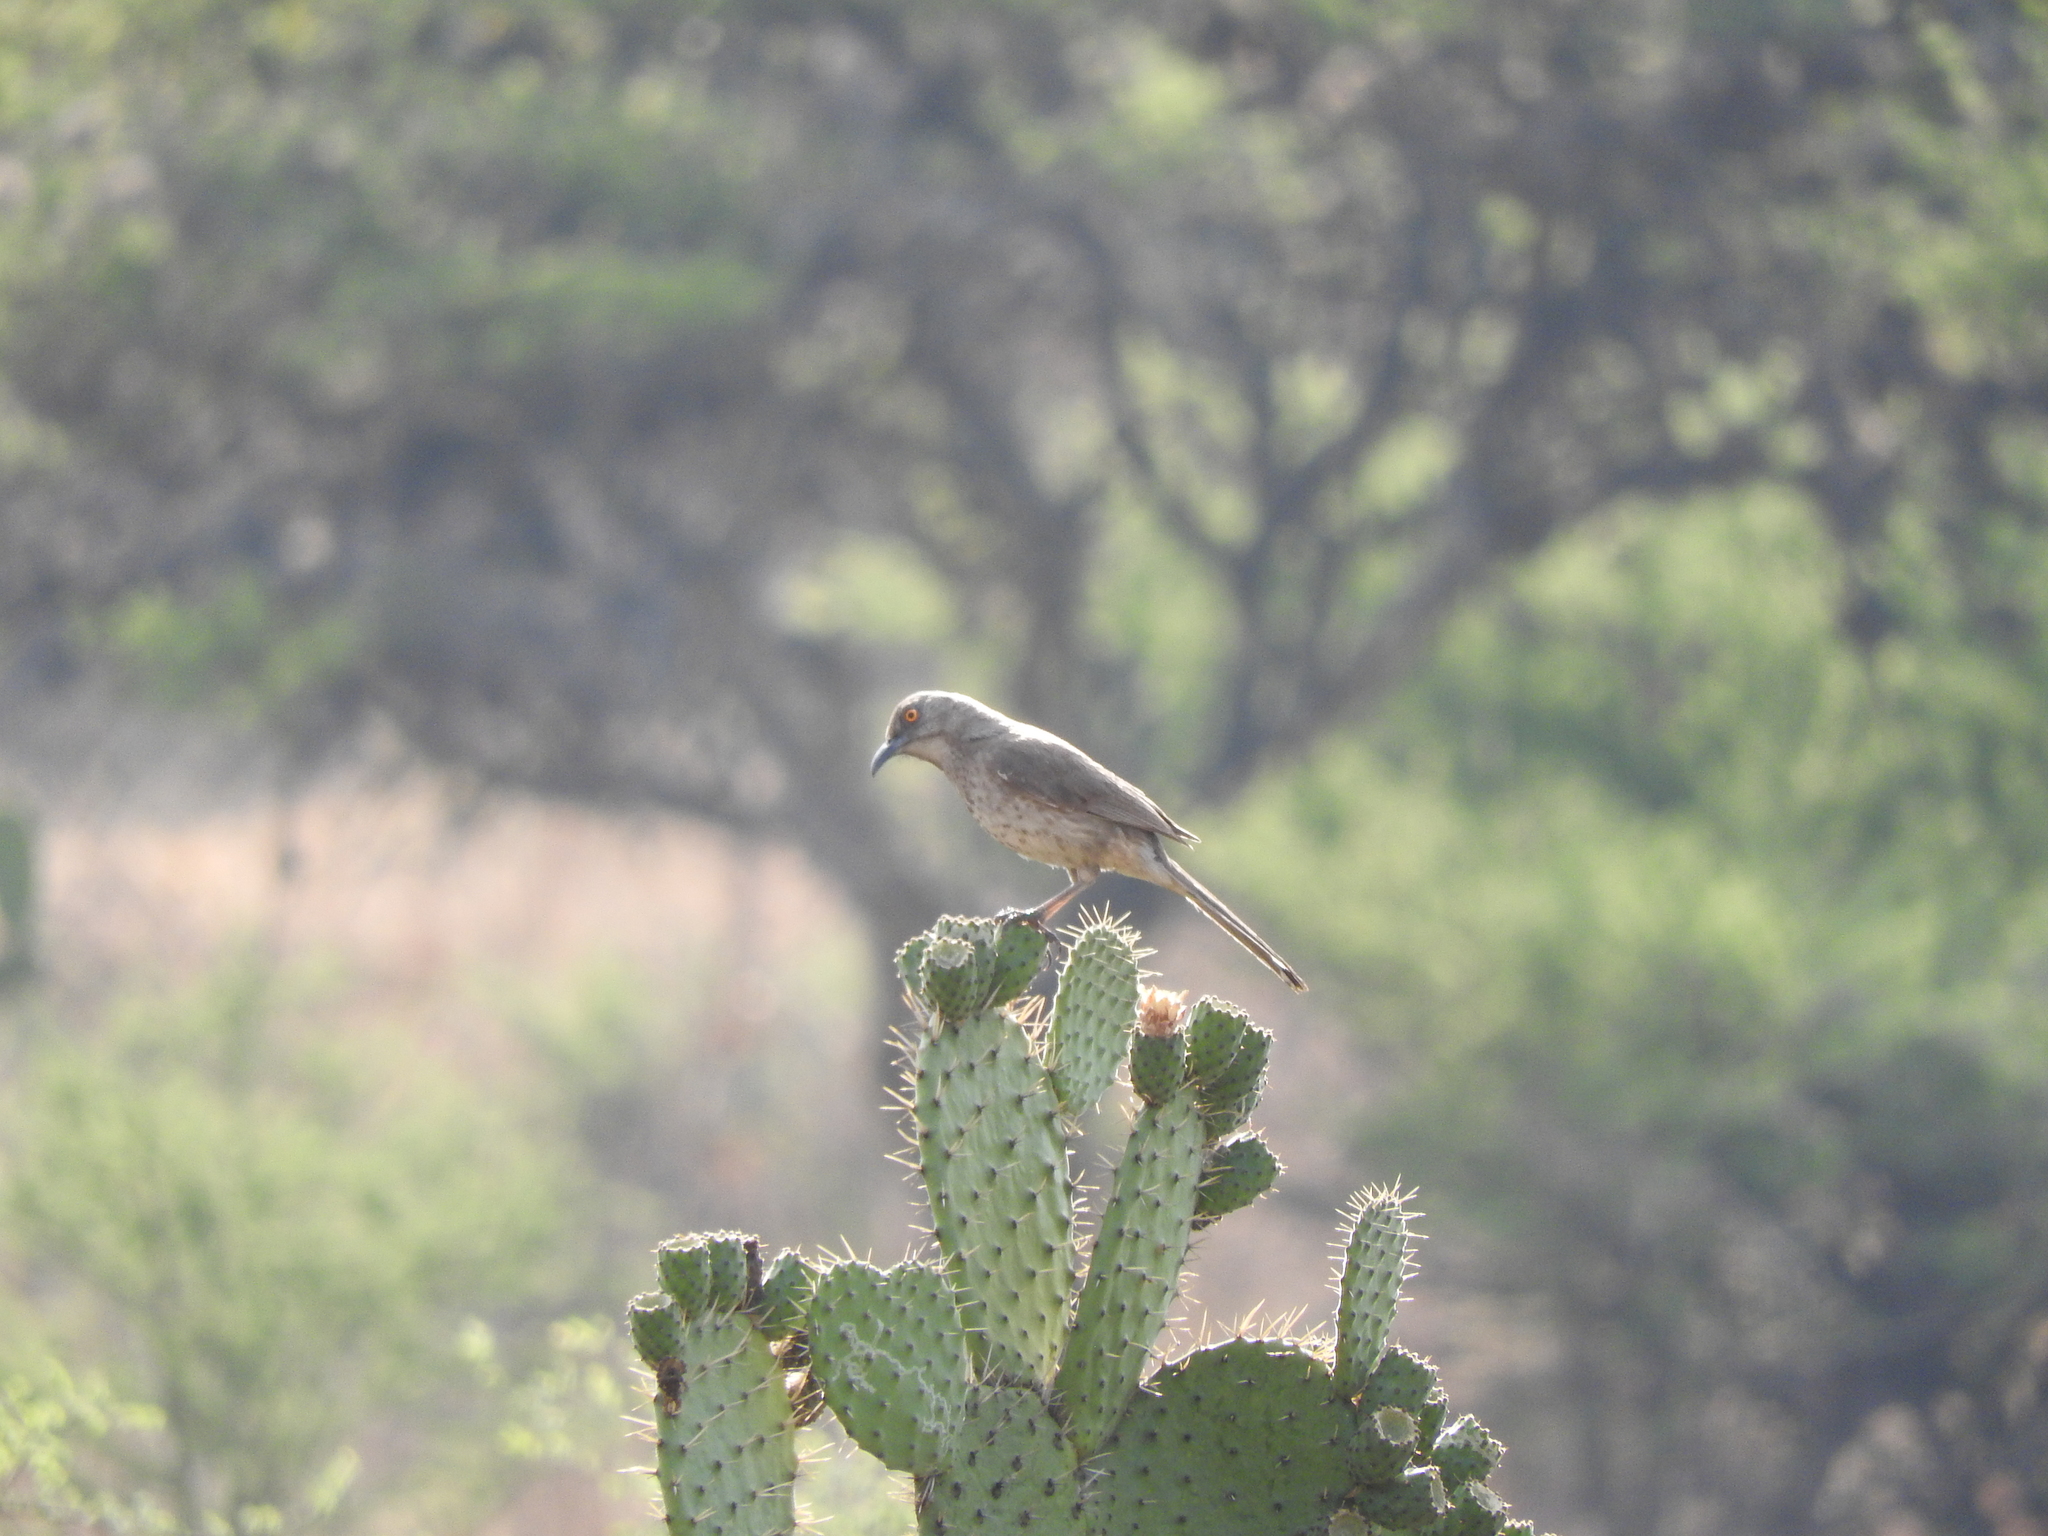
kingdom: Animalia
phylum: Chordata
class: Aves
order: Passeriformes
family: Mimidae
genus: Toxostoma
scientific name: Toxostoma curvirostre
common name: Curve-billed thrasher
